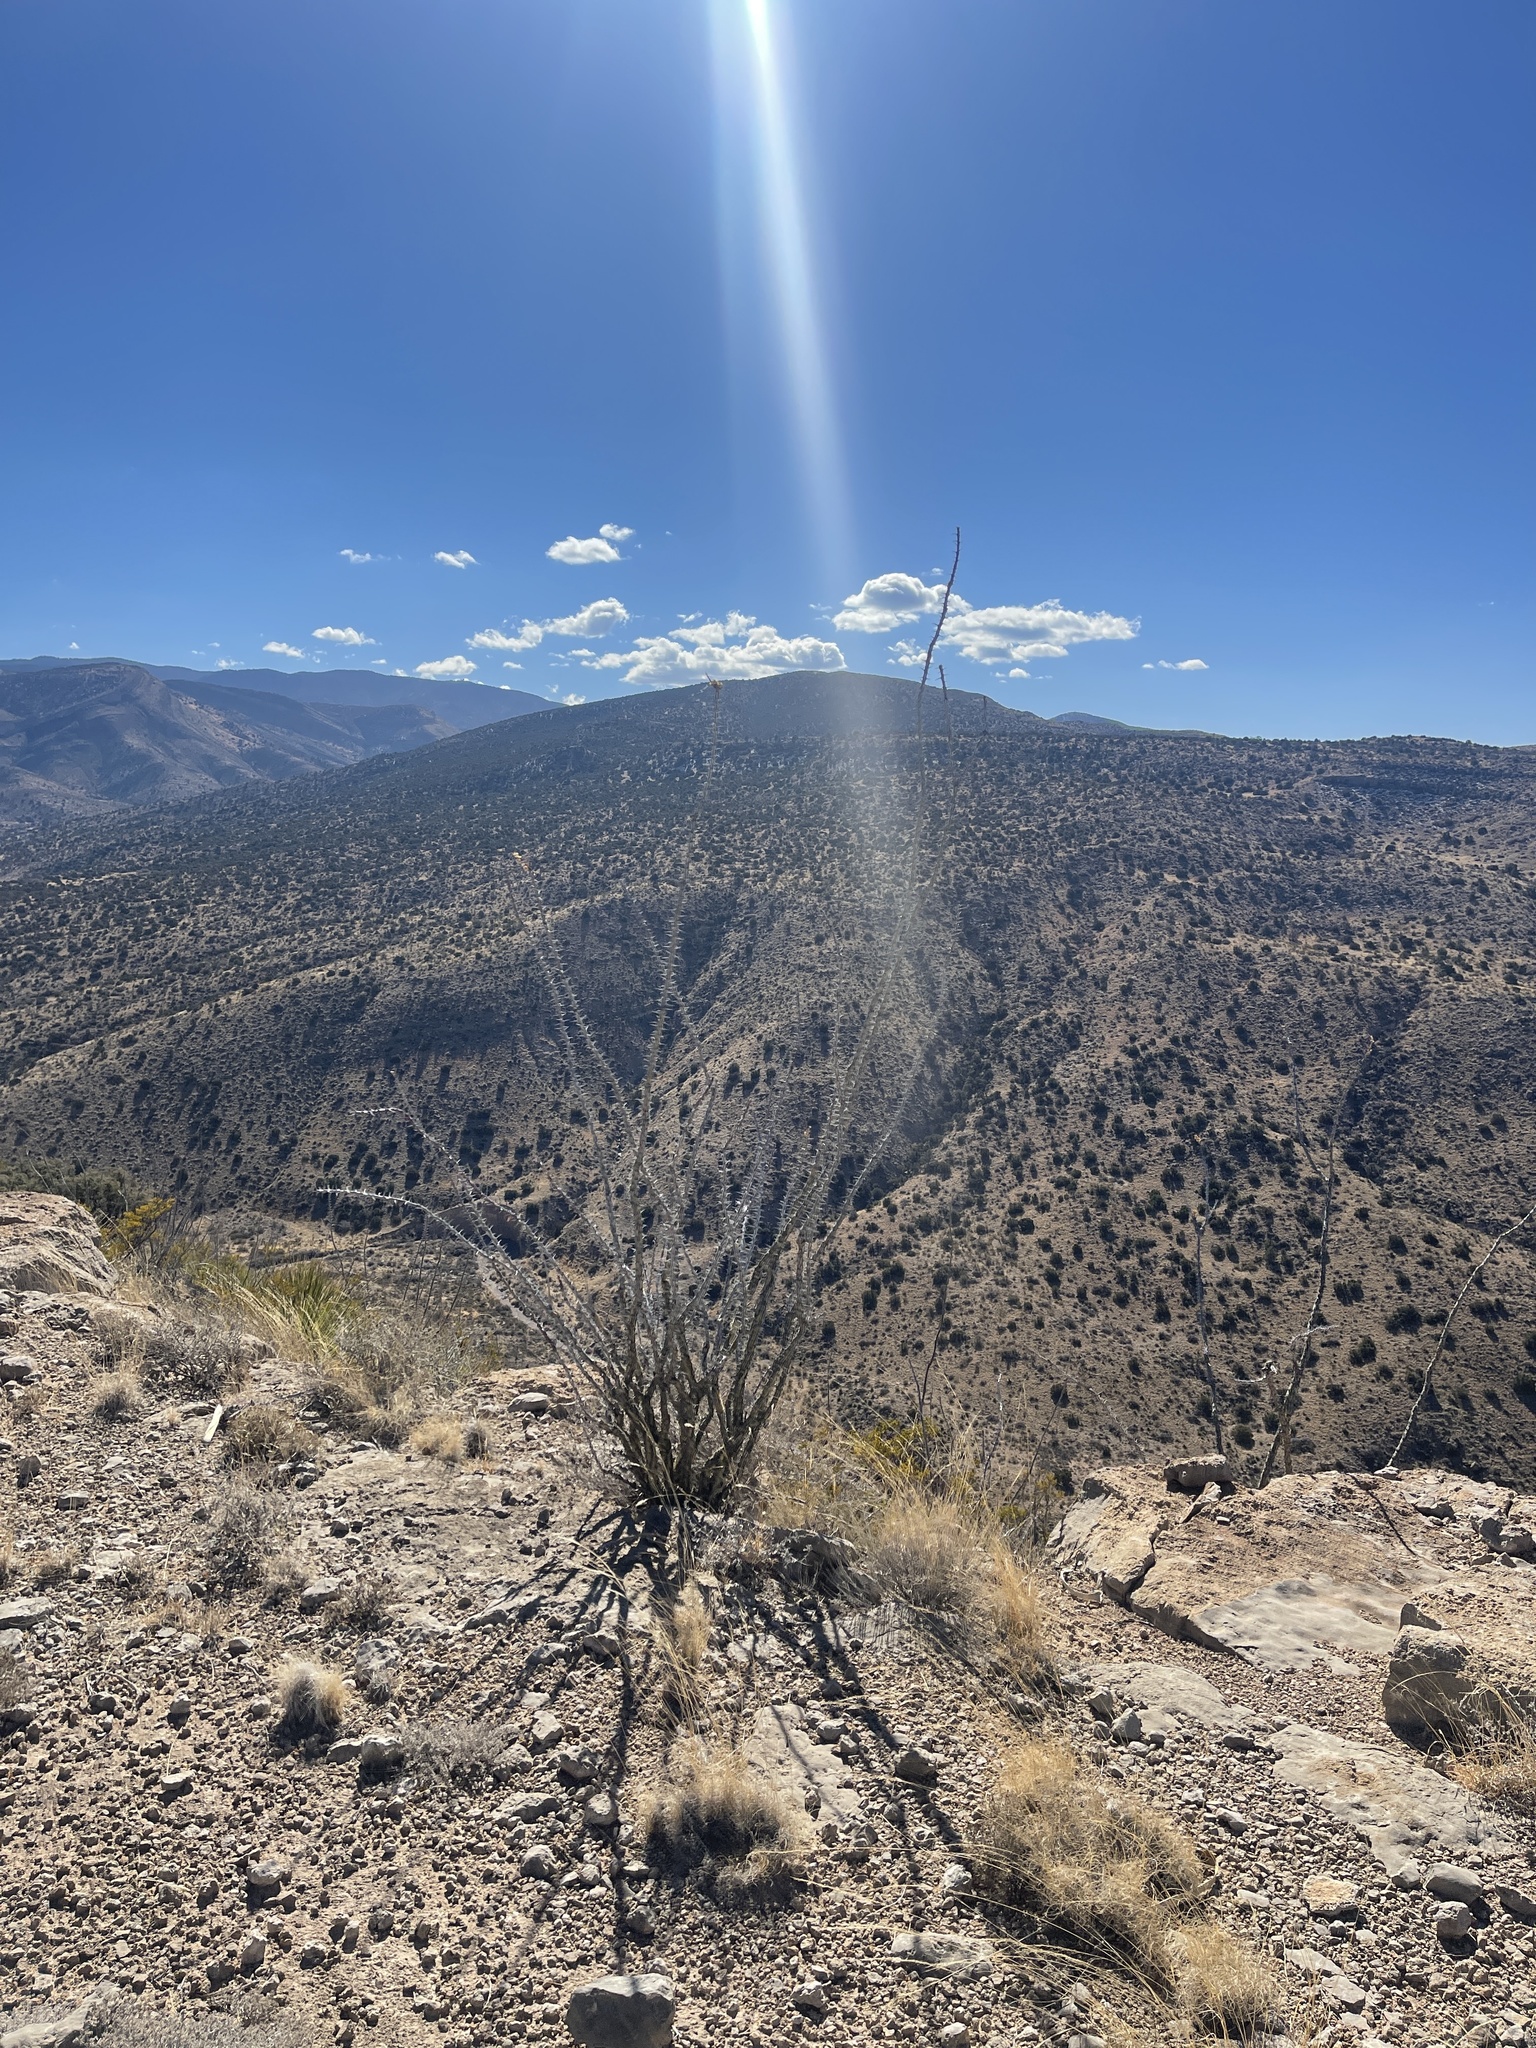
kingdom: Plantae
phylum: Tracheophyta
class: Magnoliopsida
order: Ericales
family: Fouquieriaceae
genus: Fouquieria
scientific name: Fouquieria splendens
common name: Vine-cactus
